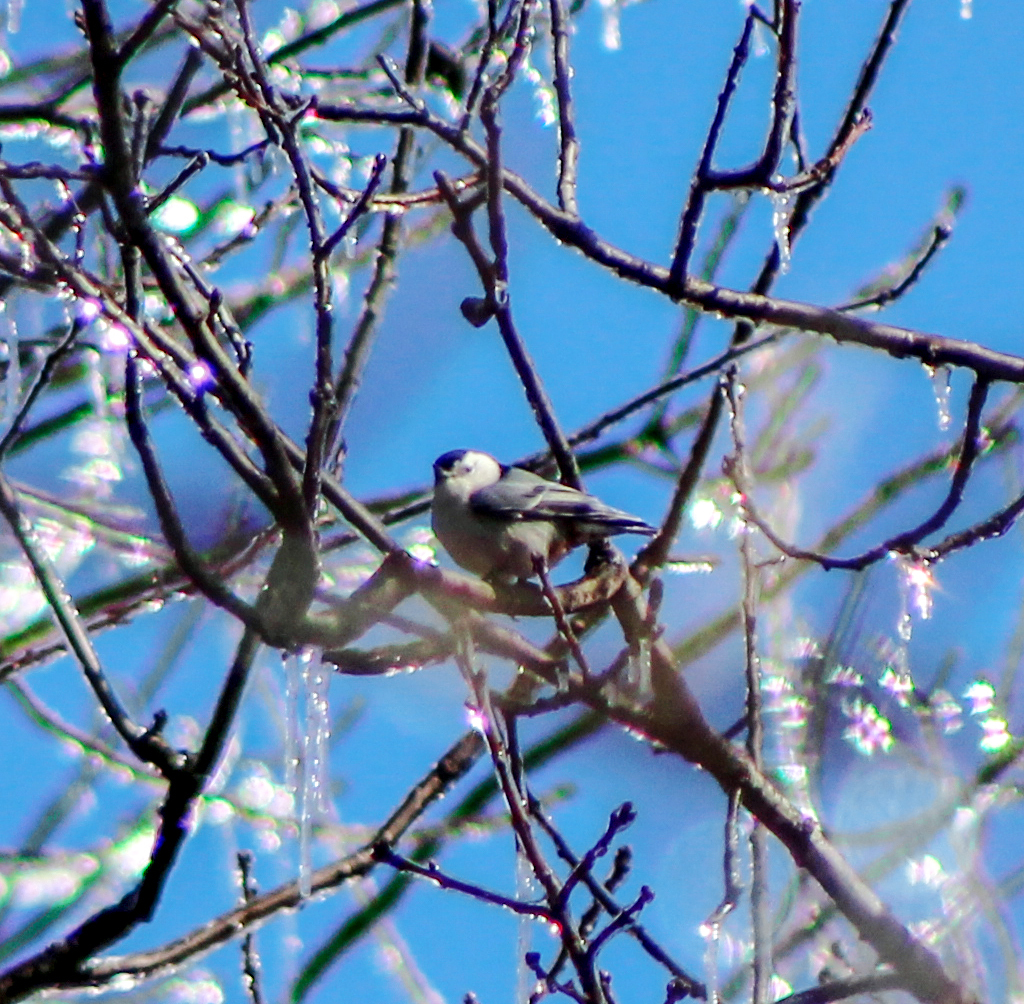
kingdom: Animalia
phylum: Chordata
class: Aves
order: Passeriformes
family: Sittidae
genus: Sitta
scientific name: Sitta carolinensis
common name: White-breasted nuthatch
